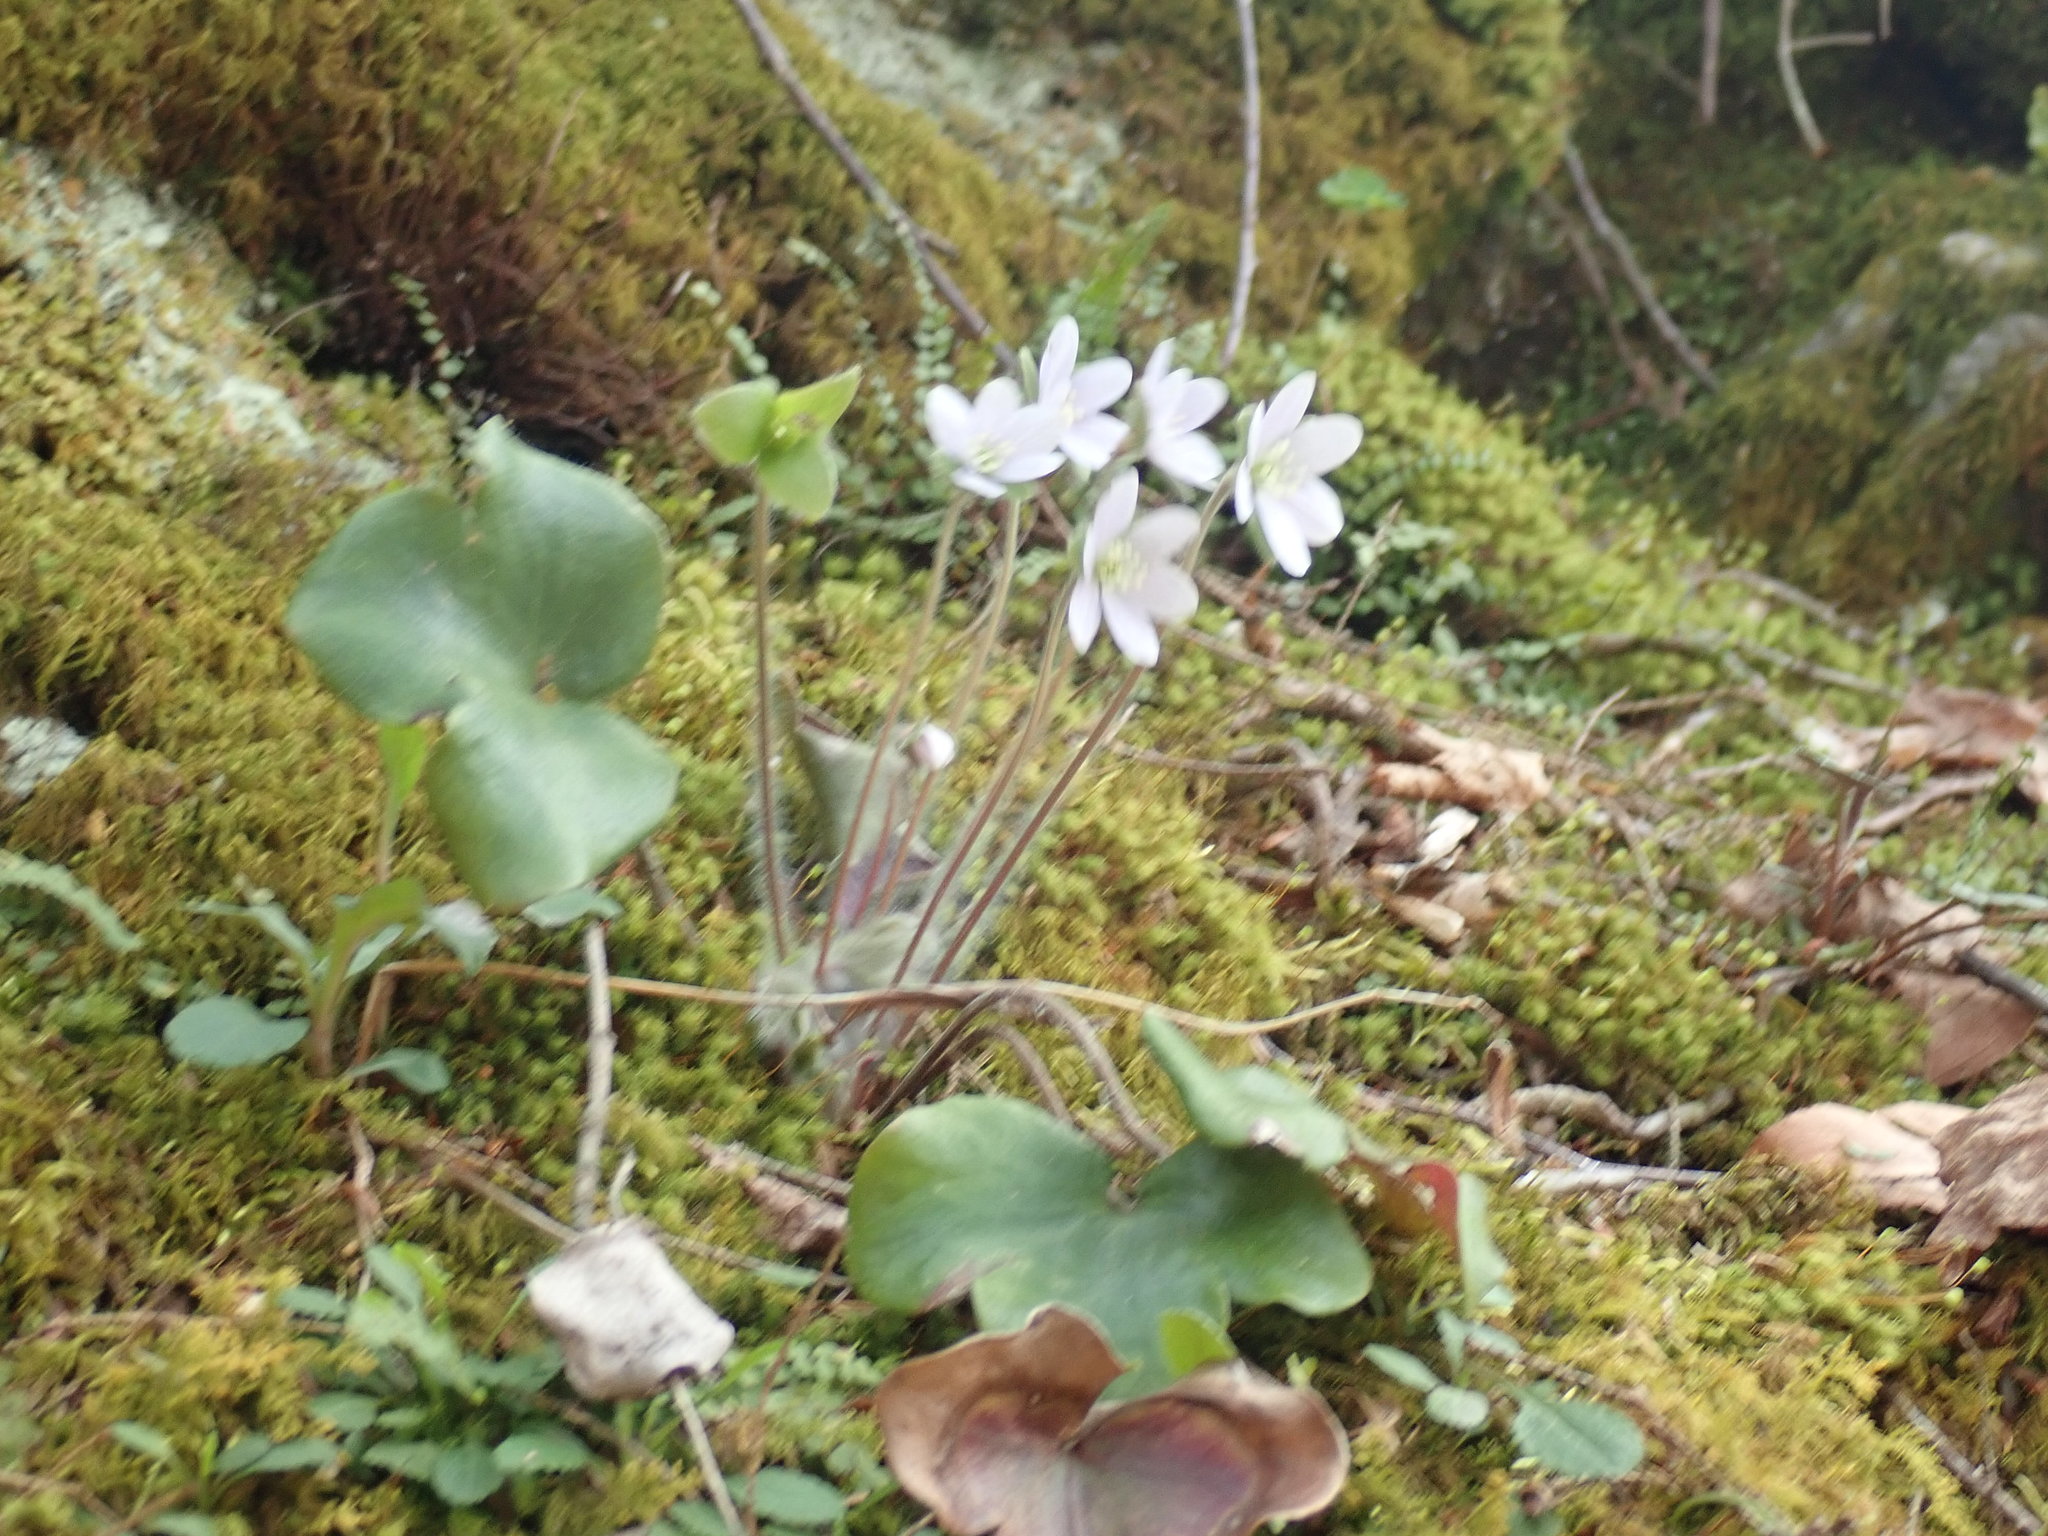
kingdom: Plantae
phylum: Tracheophyta
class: Magnoliopsida
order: Ranunculales
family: Ranunculaceae
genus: Hepatica
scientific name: Hepatica americana
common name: American hepatica
